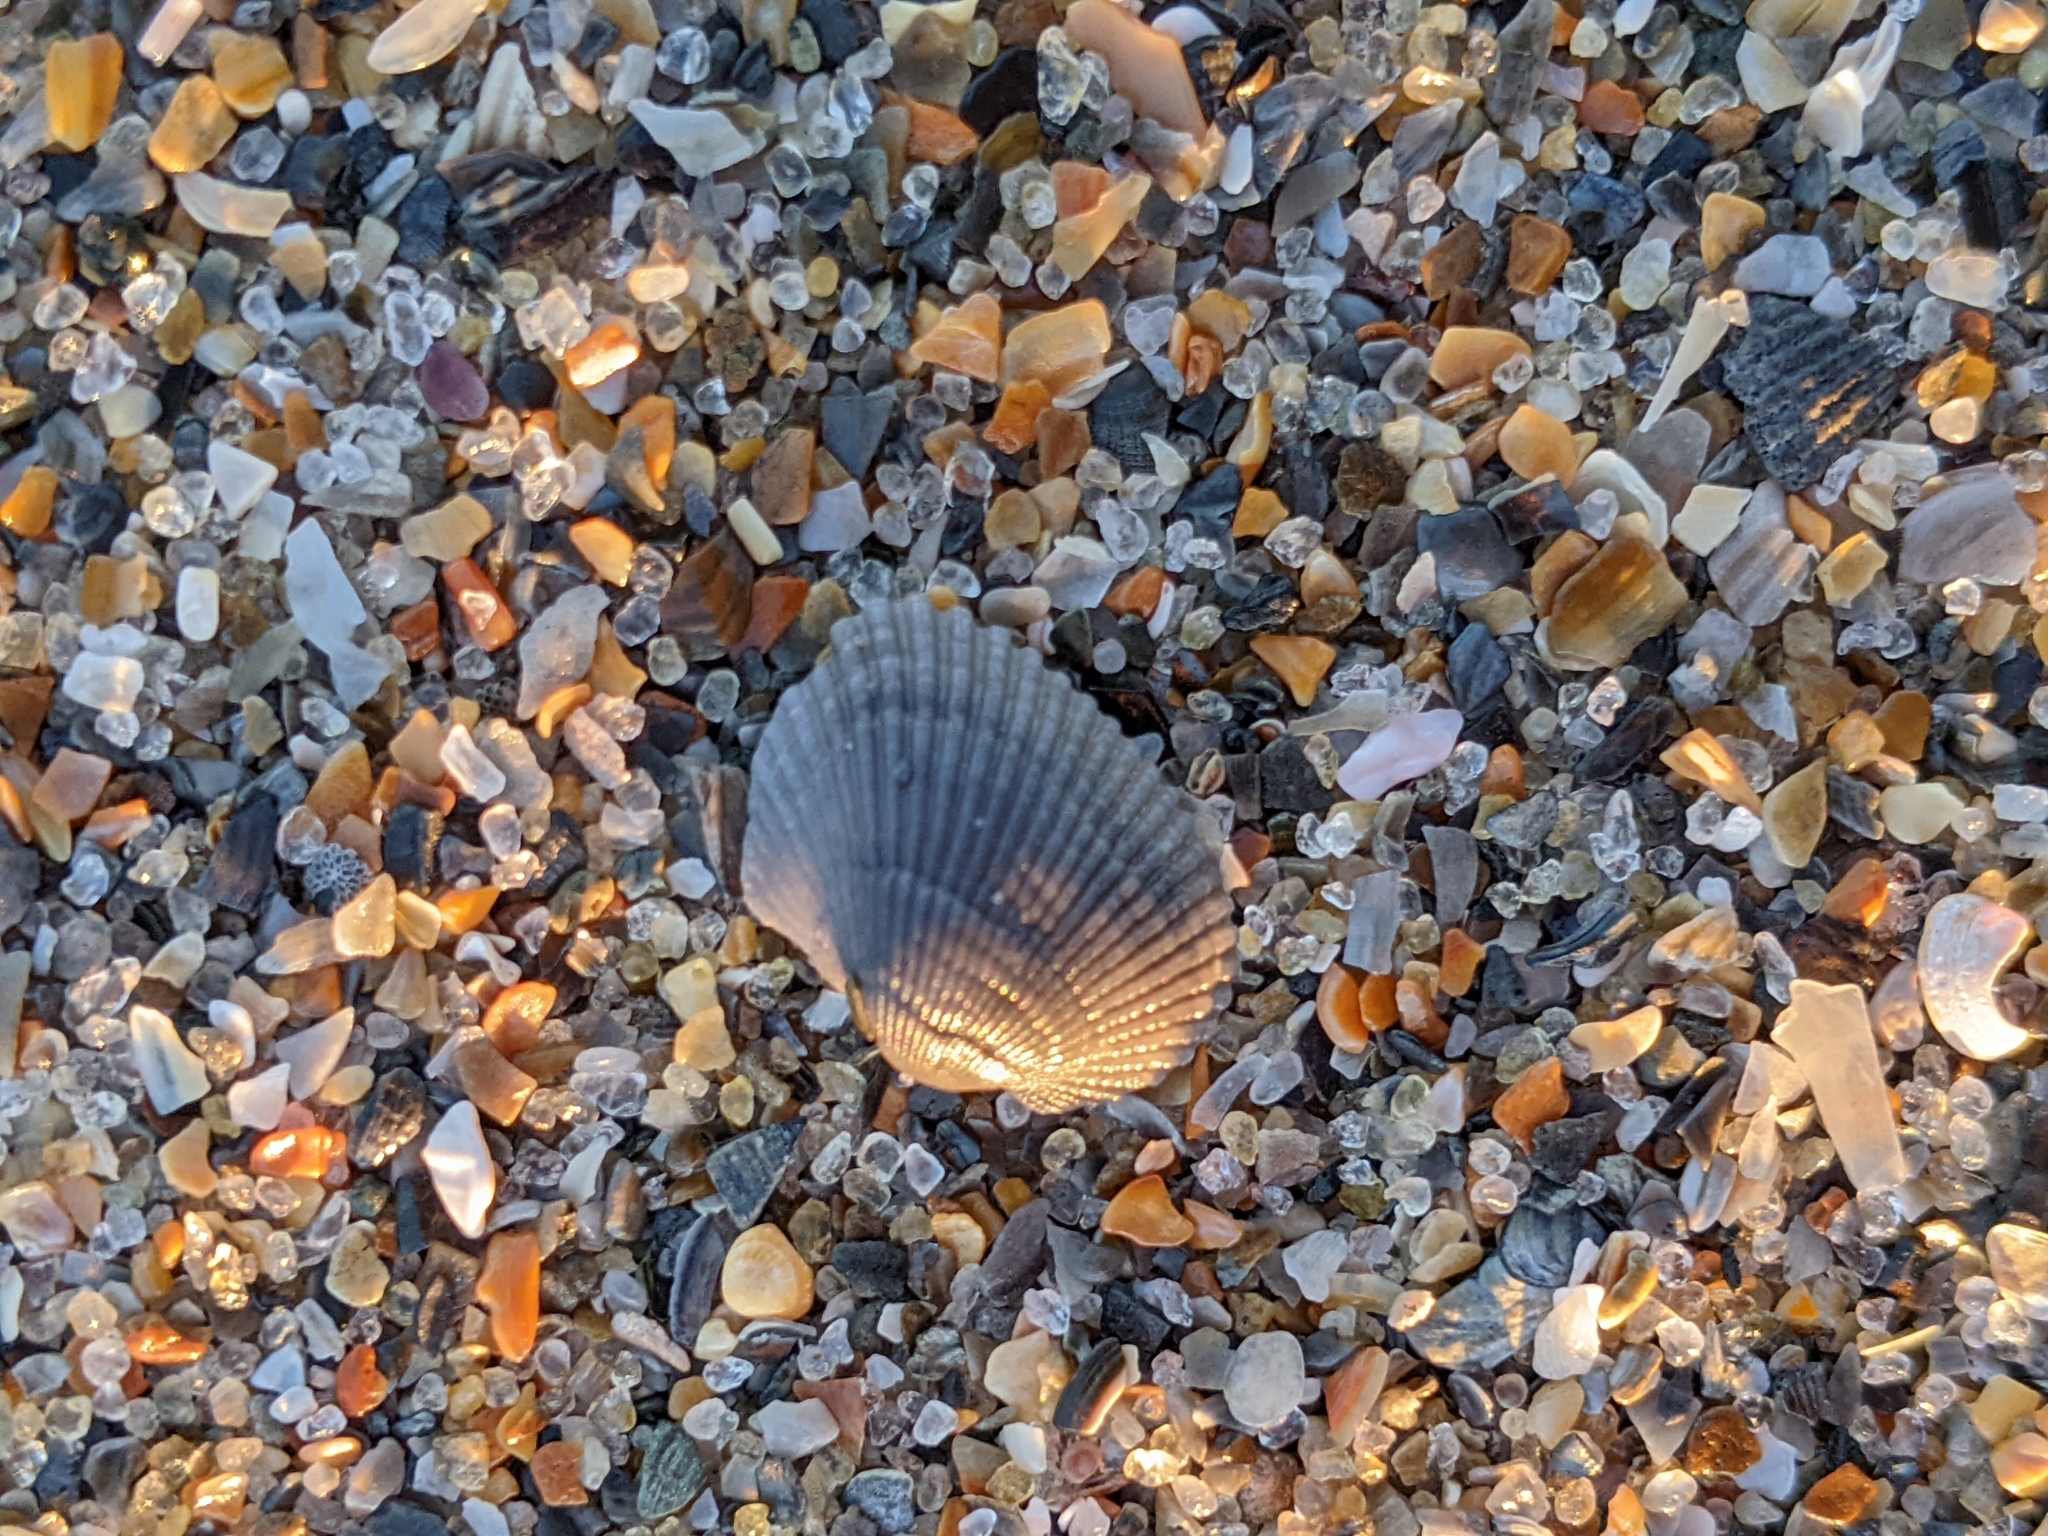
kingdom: Animalia
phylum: Mollusca
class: Bivalvia
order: Arcida
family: Arcidae
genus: Anadara
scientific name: Anadara transversa
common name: Transverse ark
